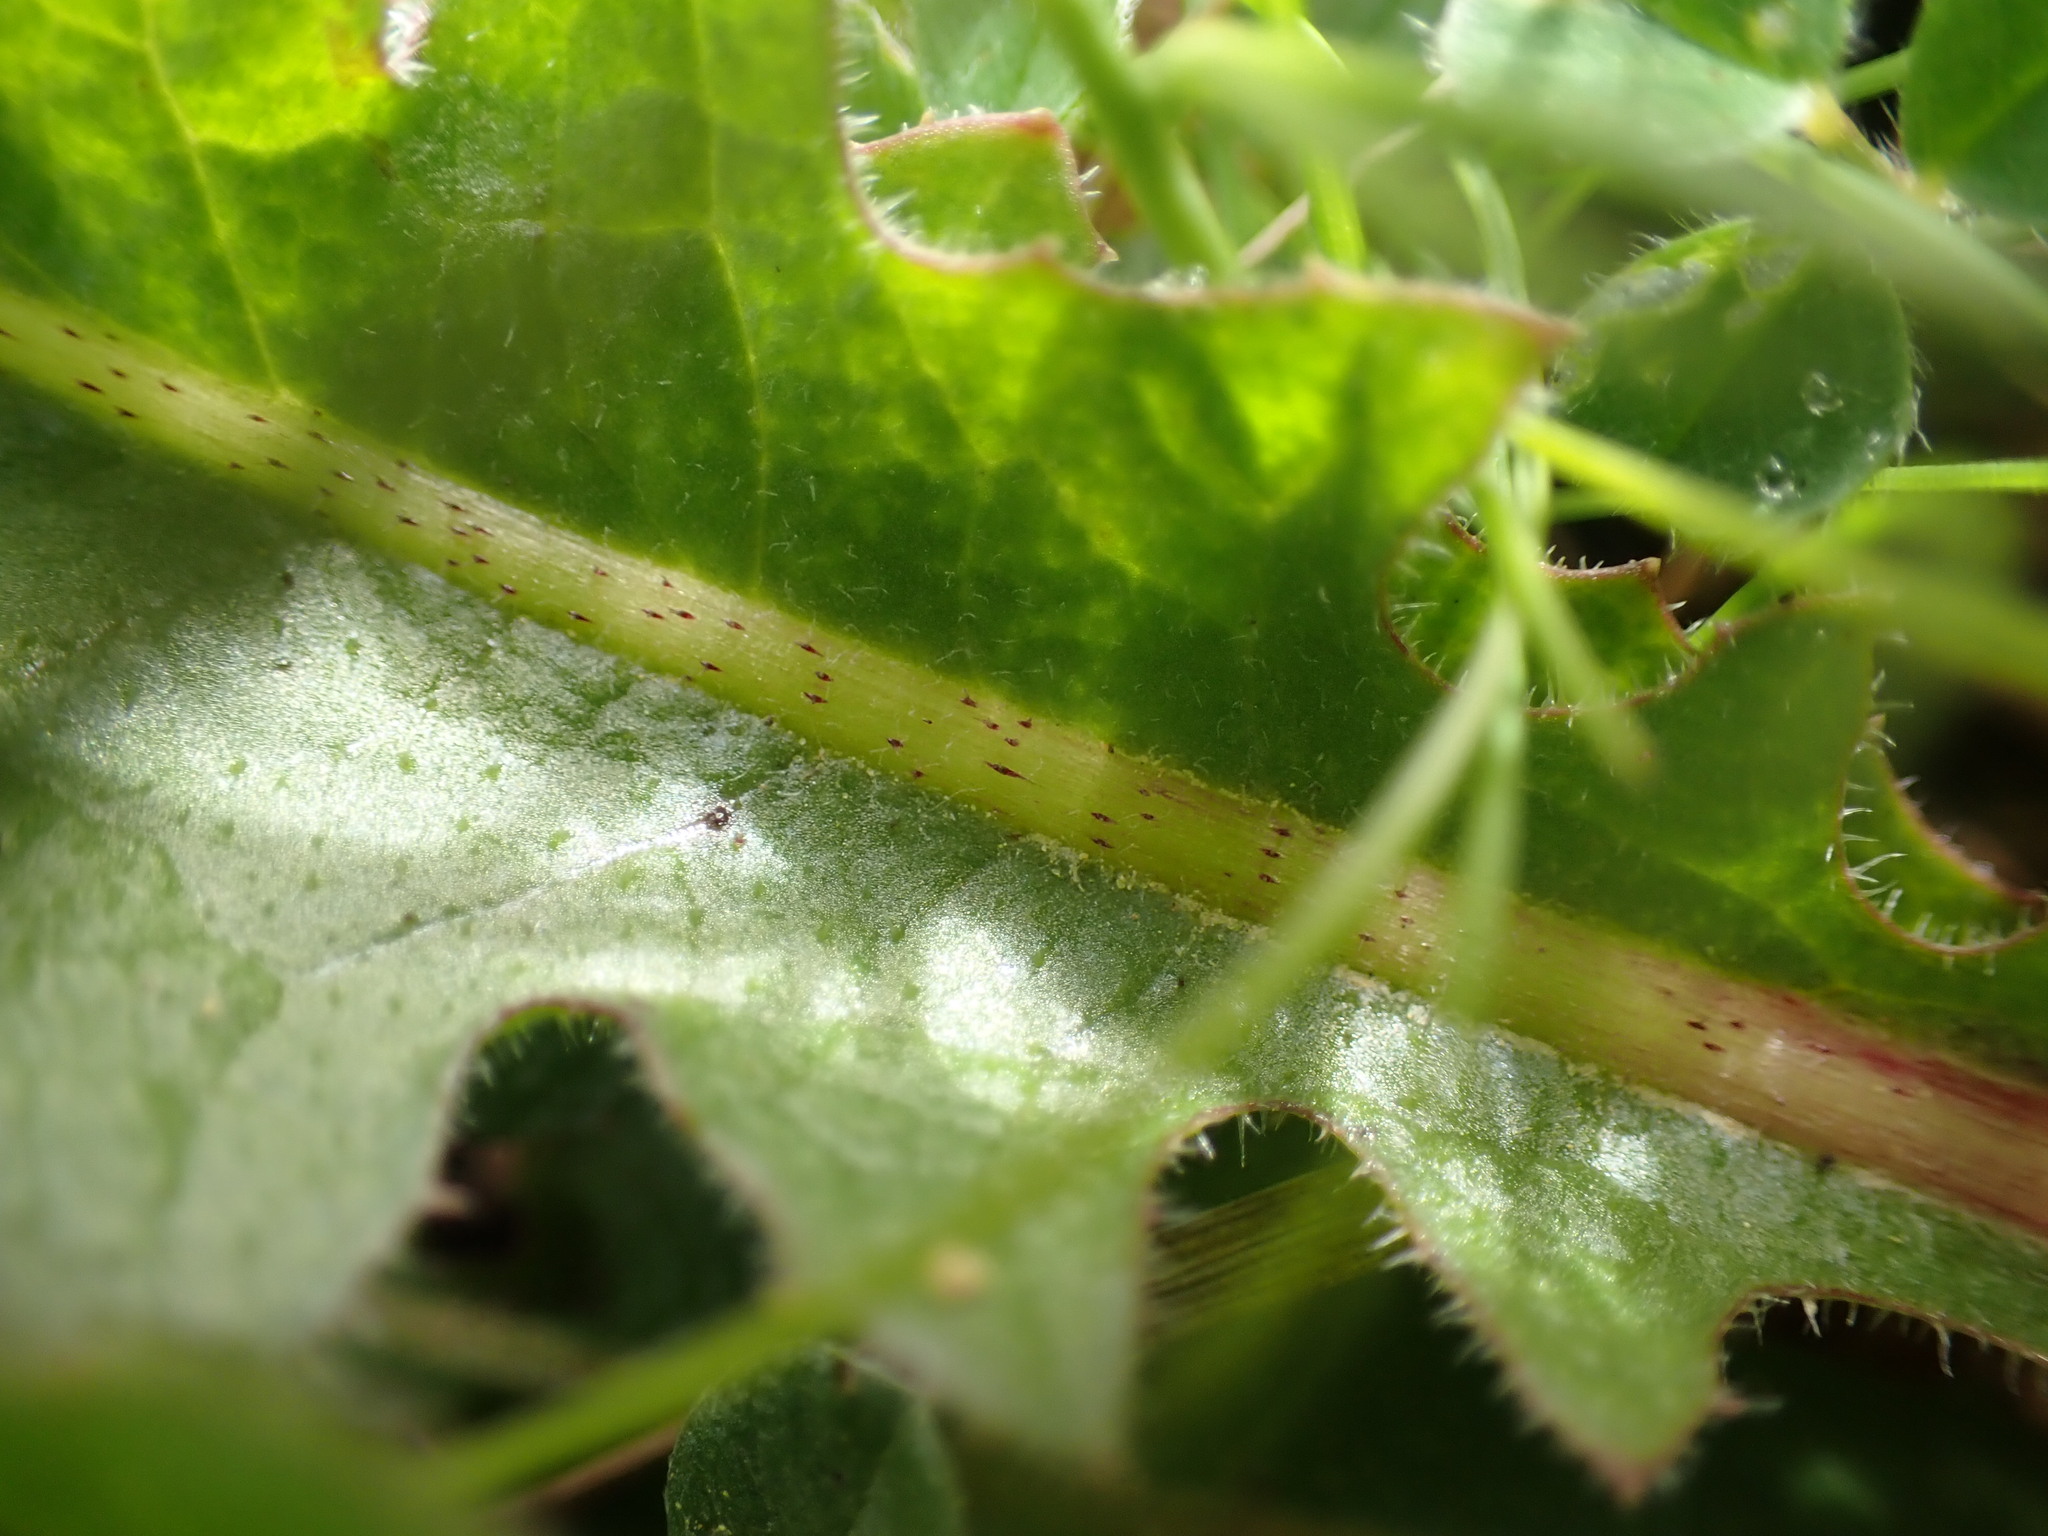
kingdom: Plantae
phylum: Tracheophyta
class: Magnoliopsida
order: Asterales
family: Asteraceae
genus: Crepis
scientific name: Crepis vesicaria
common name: Beaked hawksbeard
